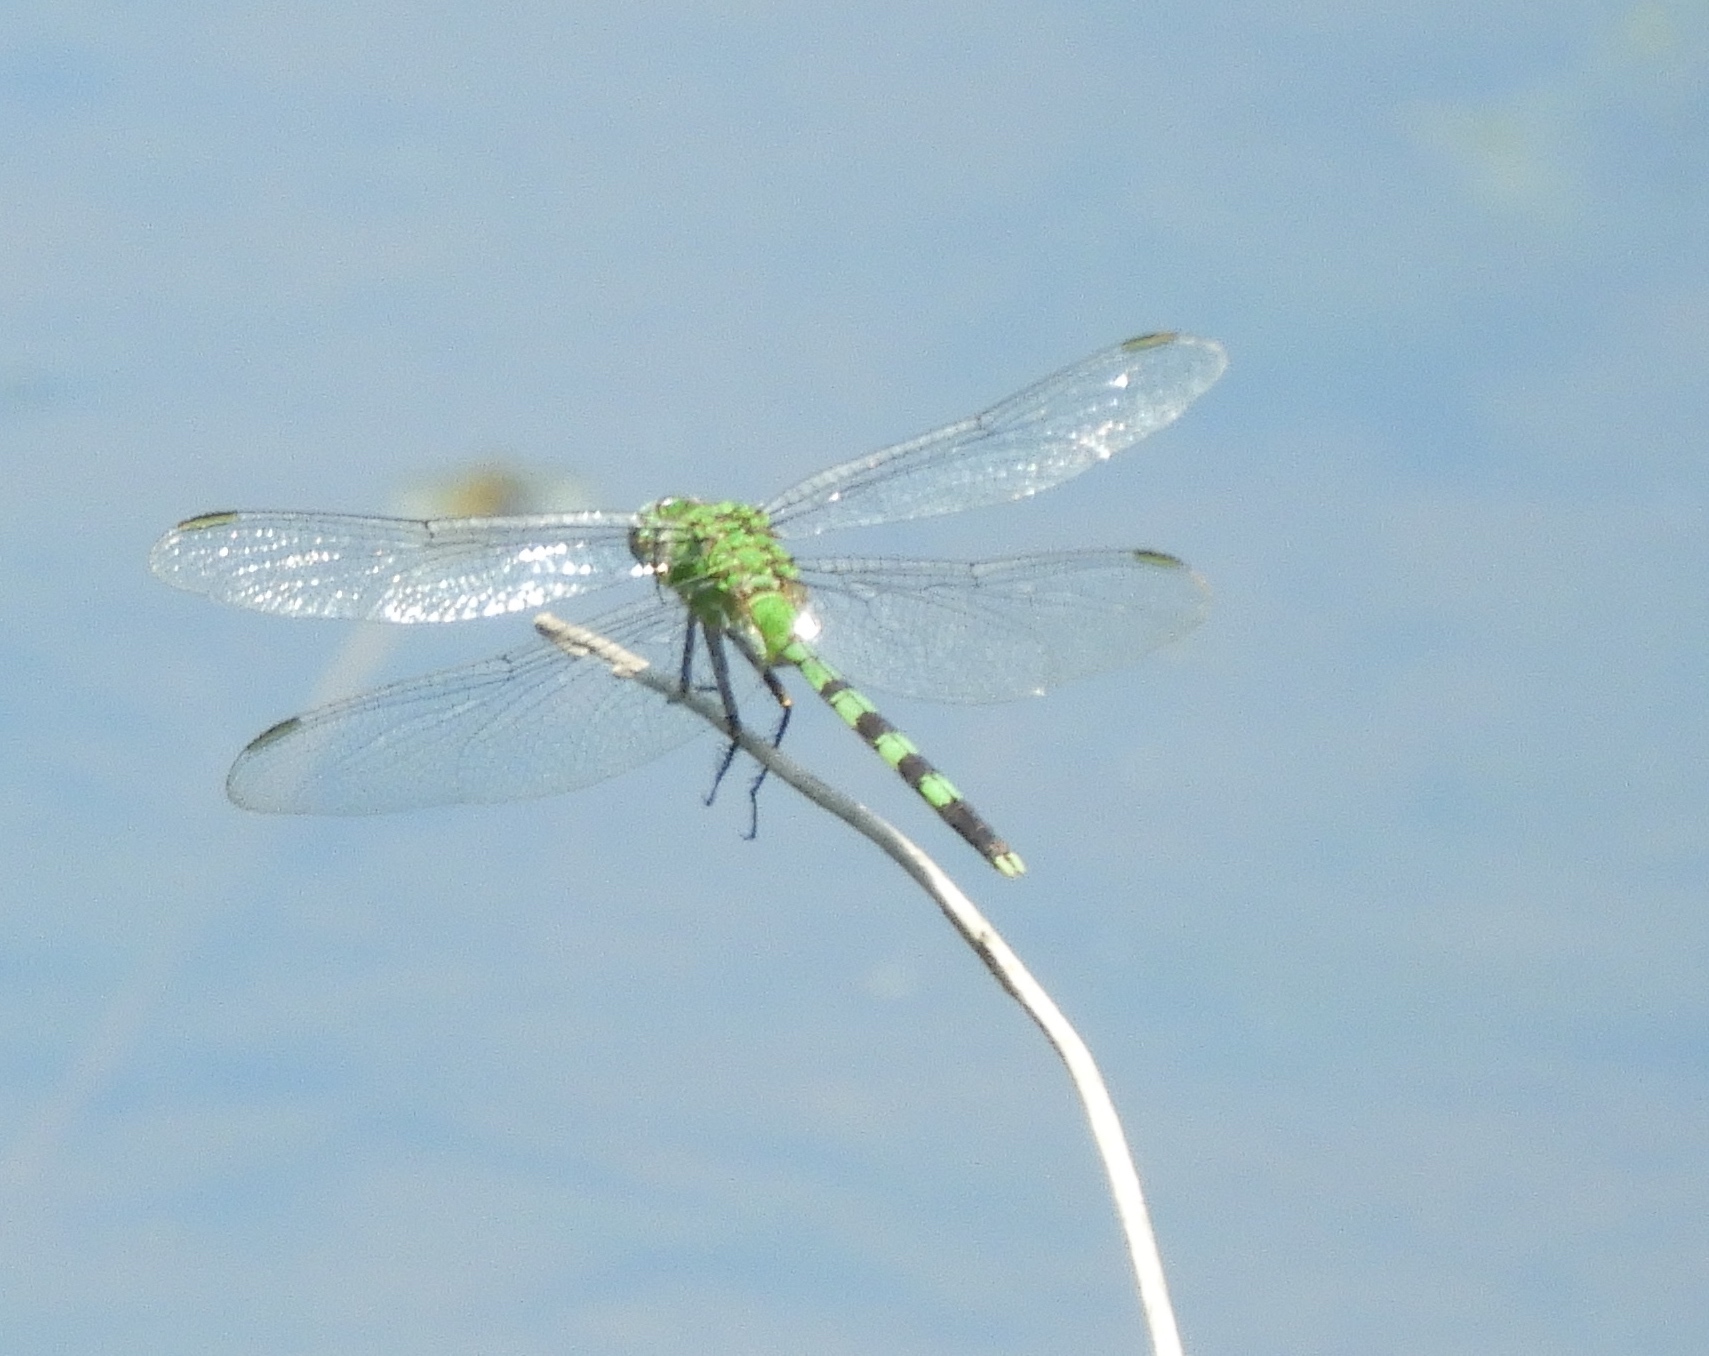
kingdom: Animalia
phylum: Arthropoda
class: Insecta
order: Odonata
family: Libellulidae
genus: Erythemis
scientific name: Erythemis vesiculosa
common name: Great pondhawk
